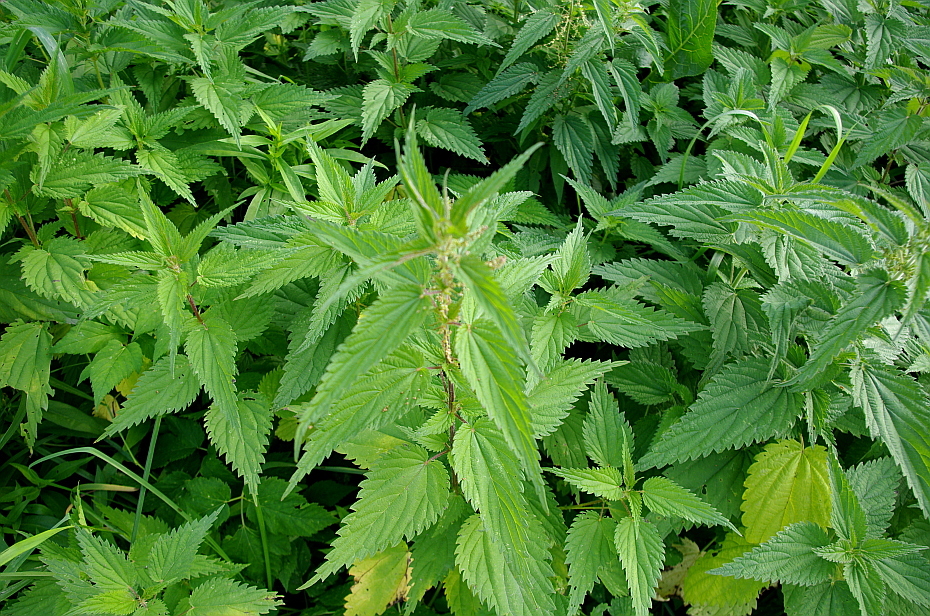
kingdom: Plantae
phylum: Tracheophyta
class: Magnoliopsida
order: Rosales
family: Urticaceae
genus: Urtica
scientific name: Urtica dioica
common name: Common nettle
